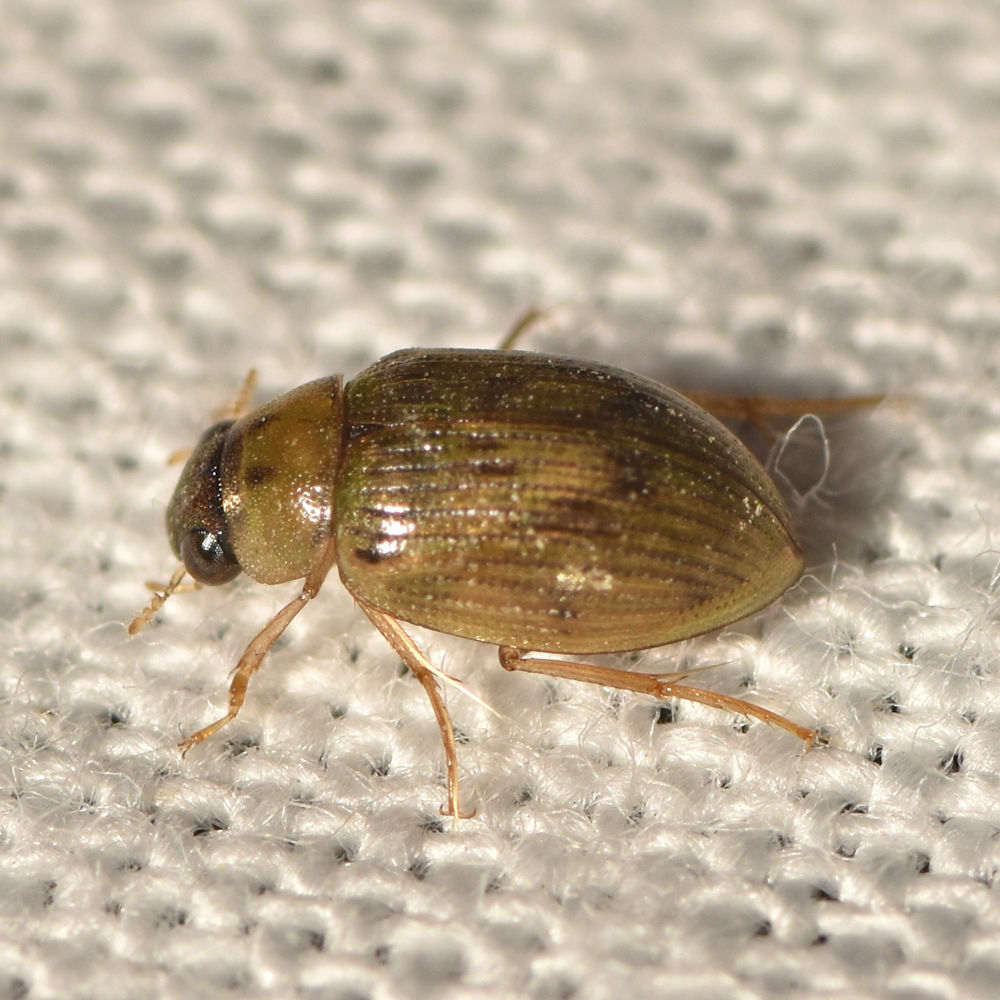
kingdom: Animalia
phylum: Arthropoda
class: Insecta
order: Coleoptera
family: Hydrophilidae
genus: Berosus
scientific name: Berosus peregrinus
